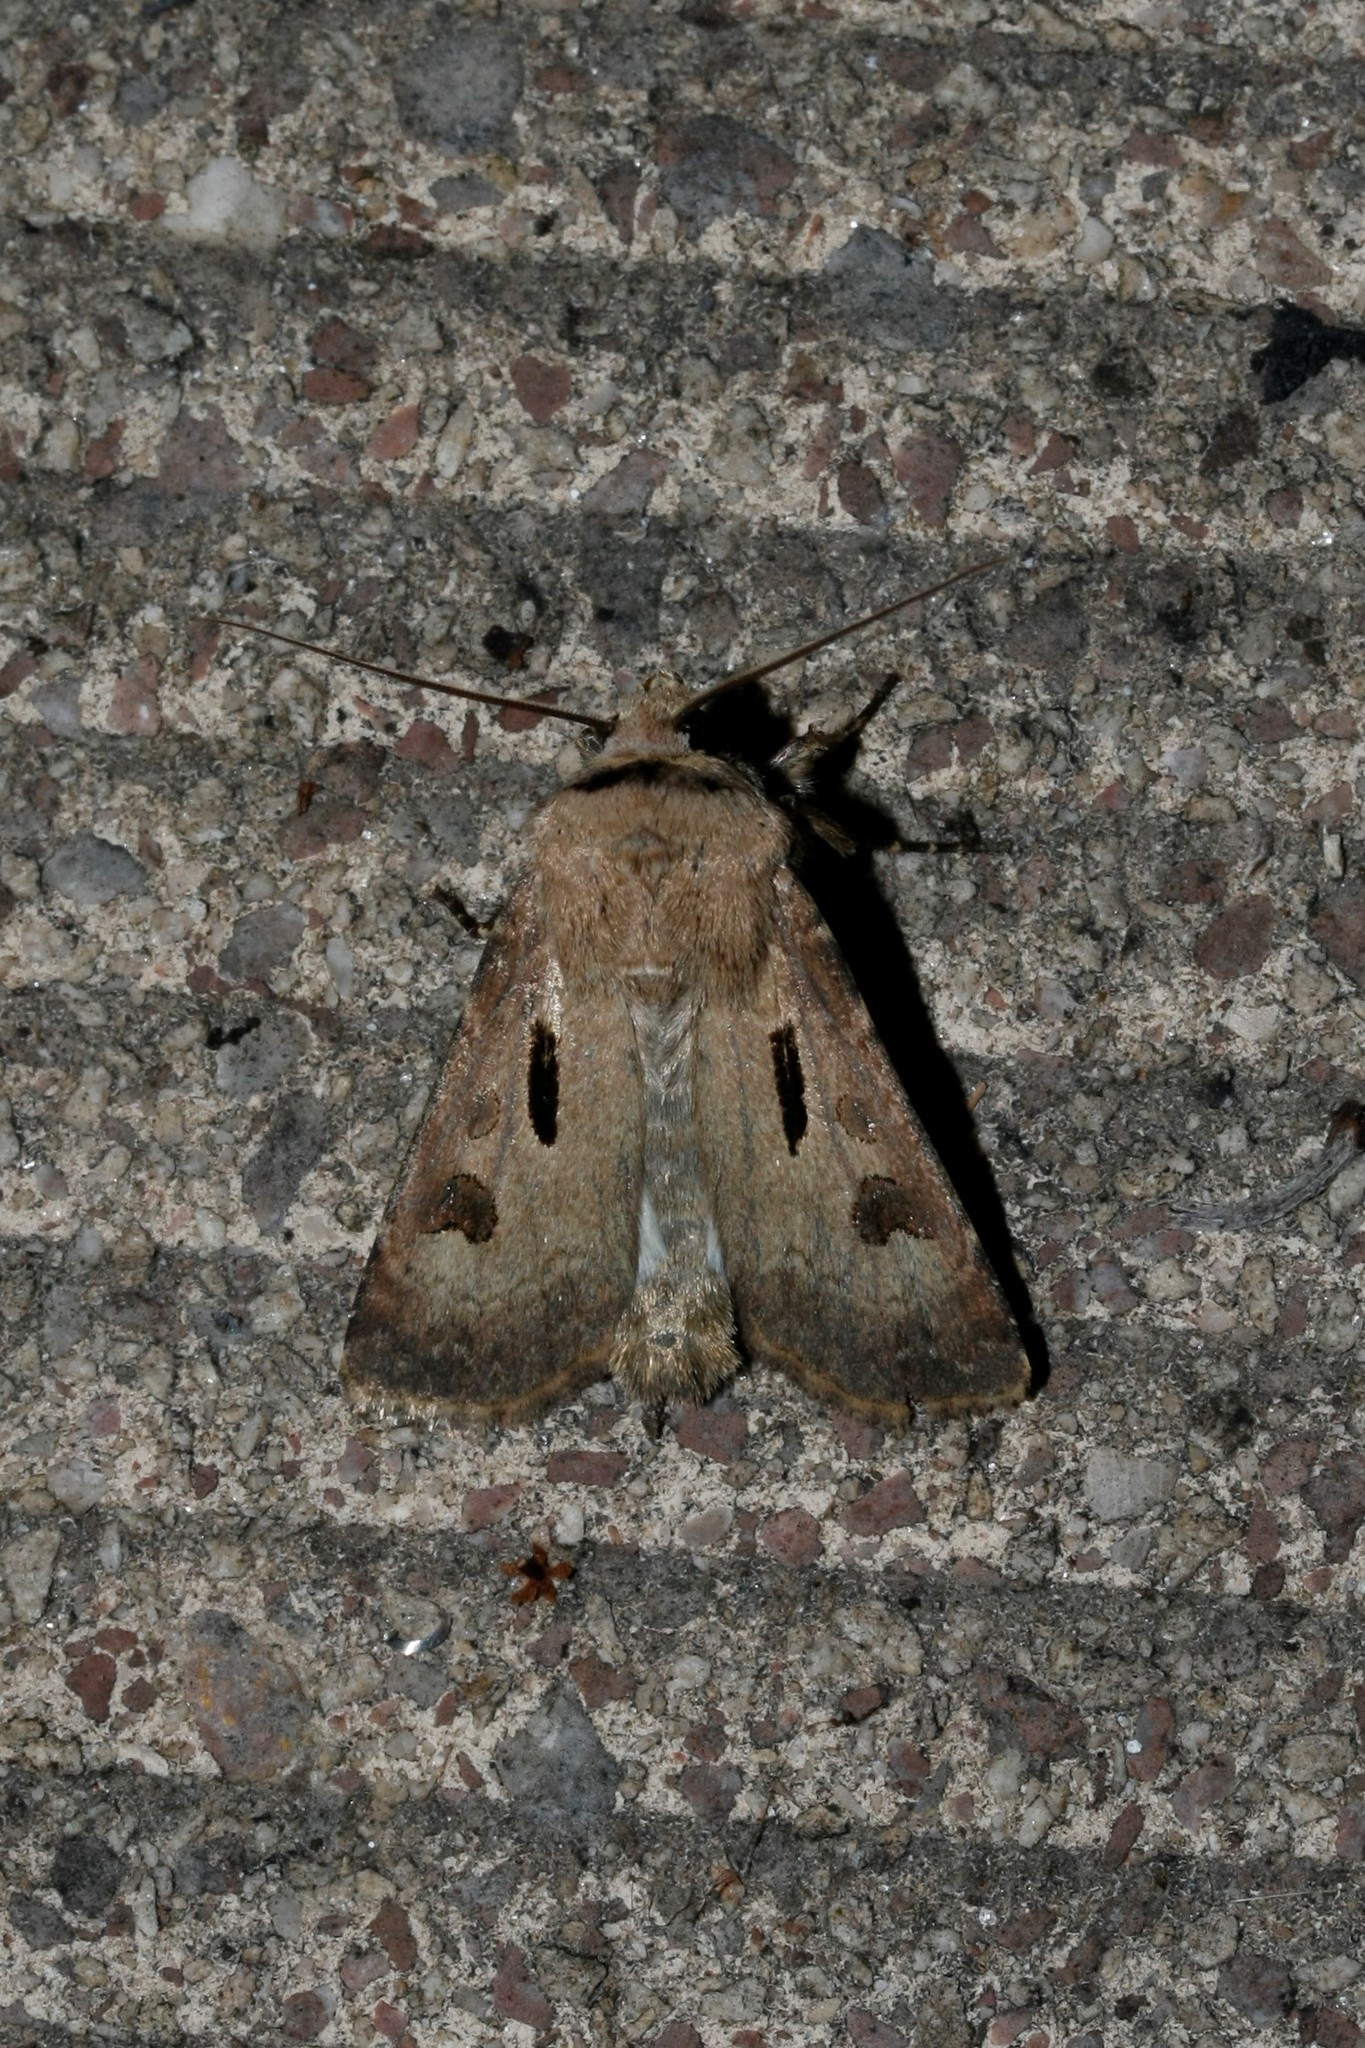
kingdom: Animalia
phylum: Arthropoda
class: Insecta
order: Lepidoptera
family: Noctuidae
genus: Agrotis
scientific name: Agrotis exclamationis
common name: Heart and dart
